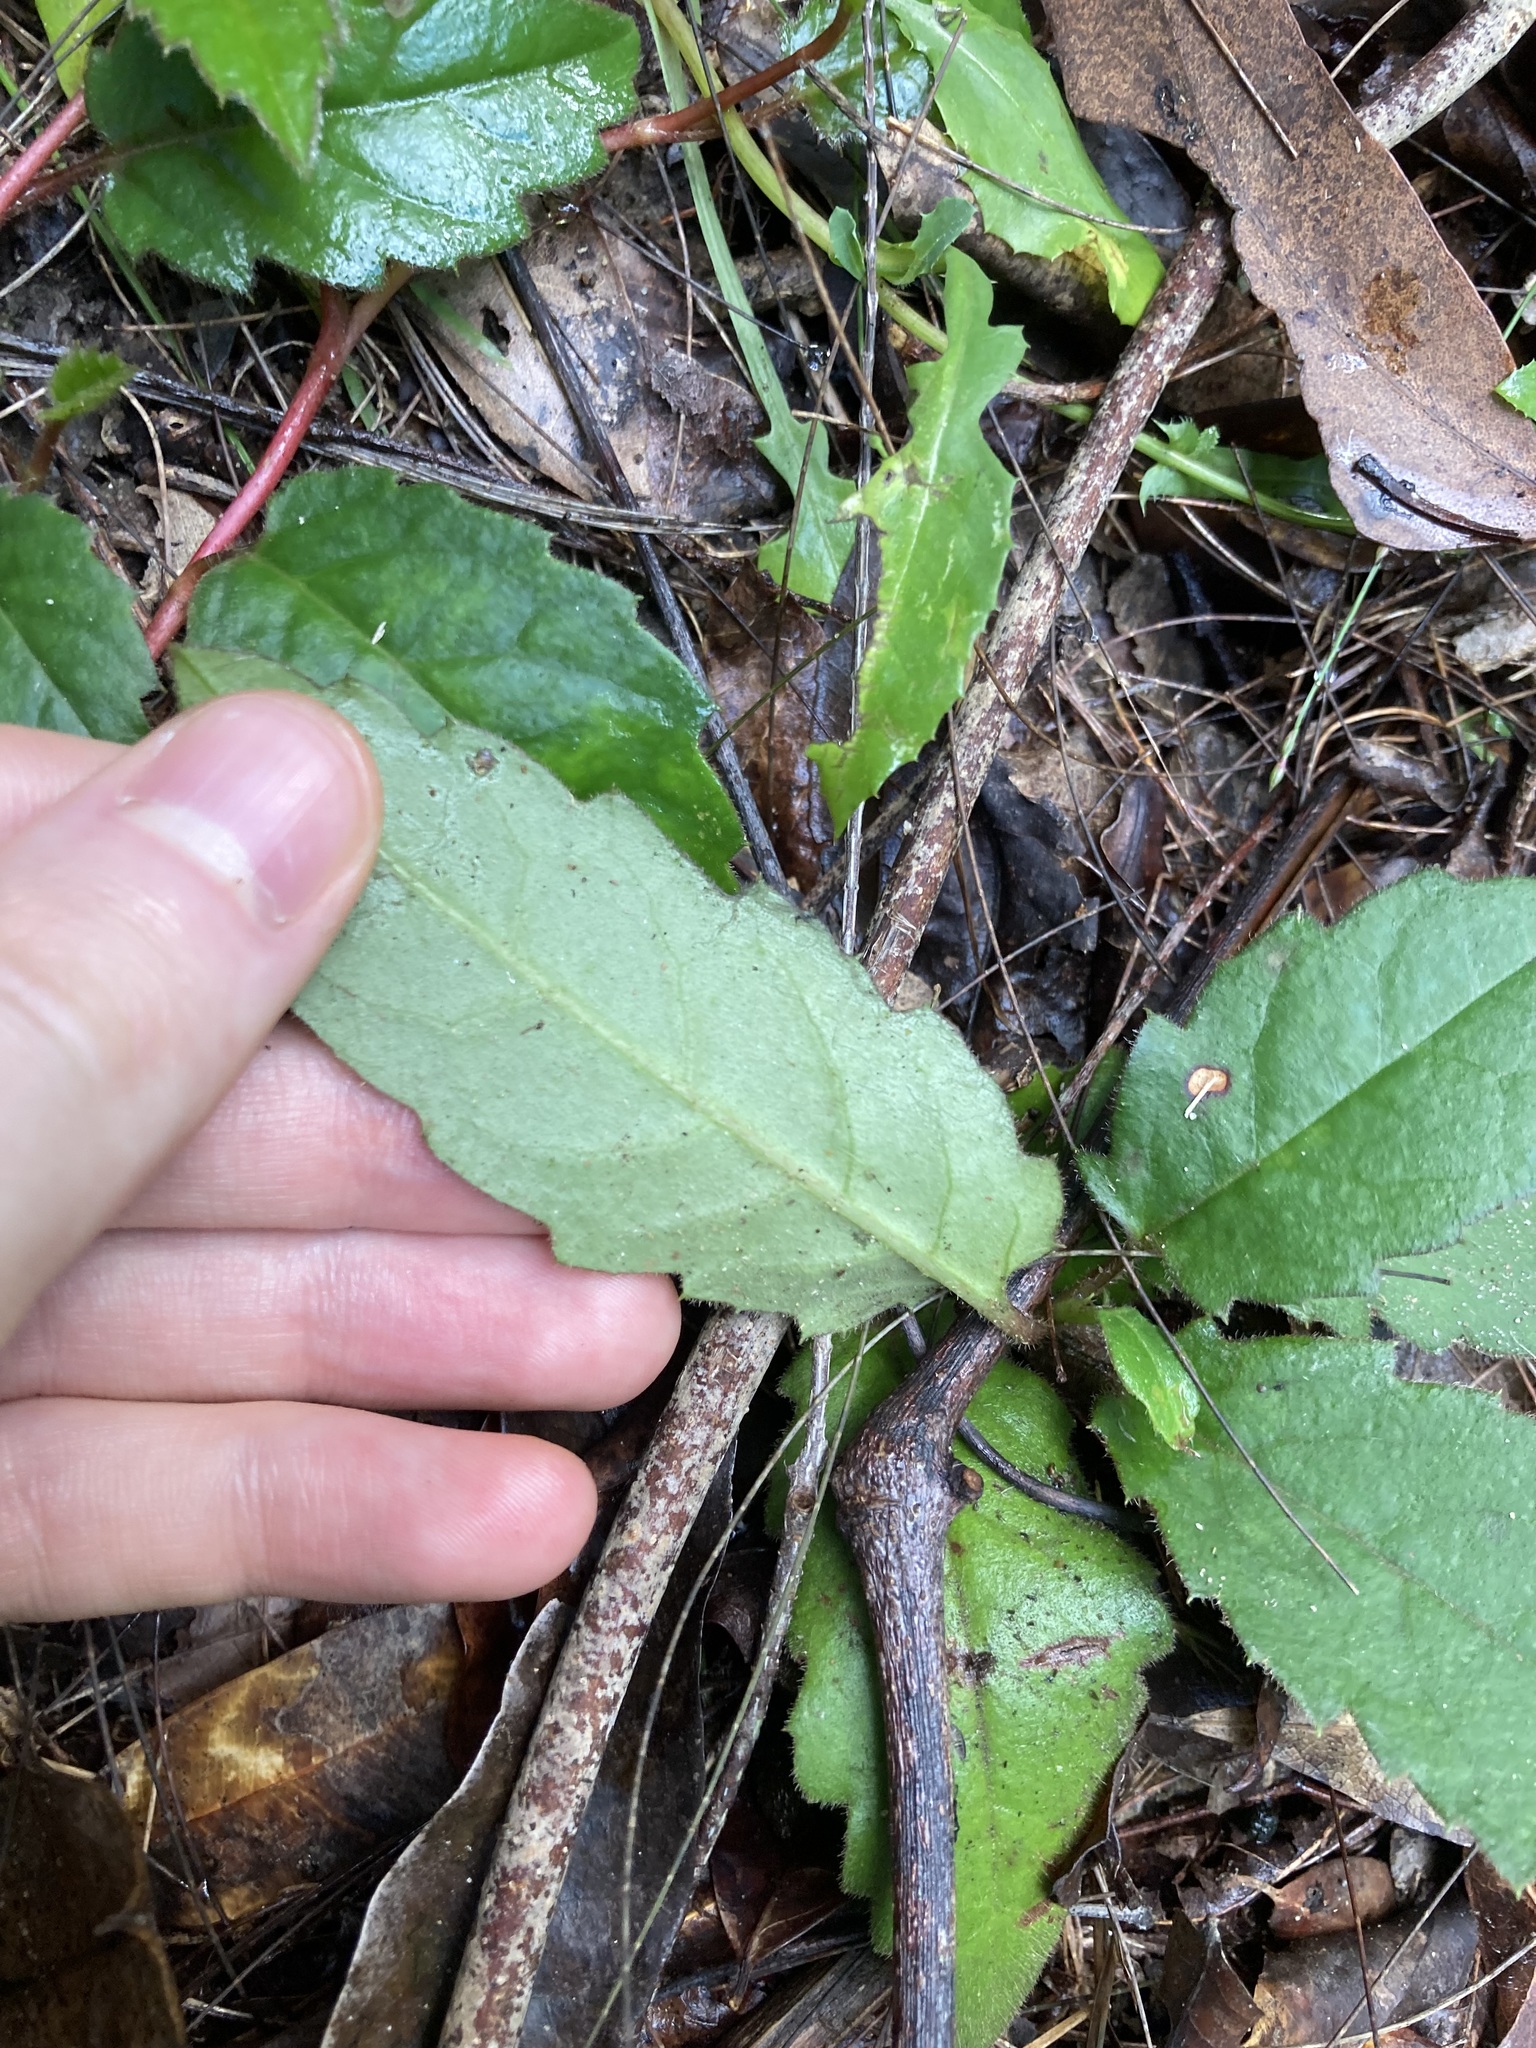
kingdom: Plantae
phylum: Tracheophyta
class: Magnoliopsida
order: Dilleniales
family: Dilleniaceae
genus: Hibbertia
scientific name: Hibbertia dentata
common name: Trailing guinea-flower
